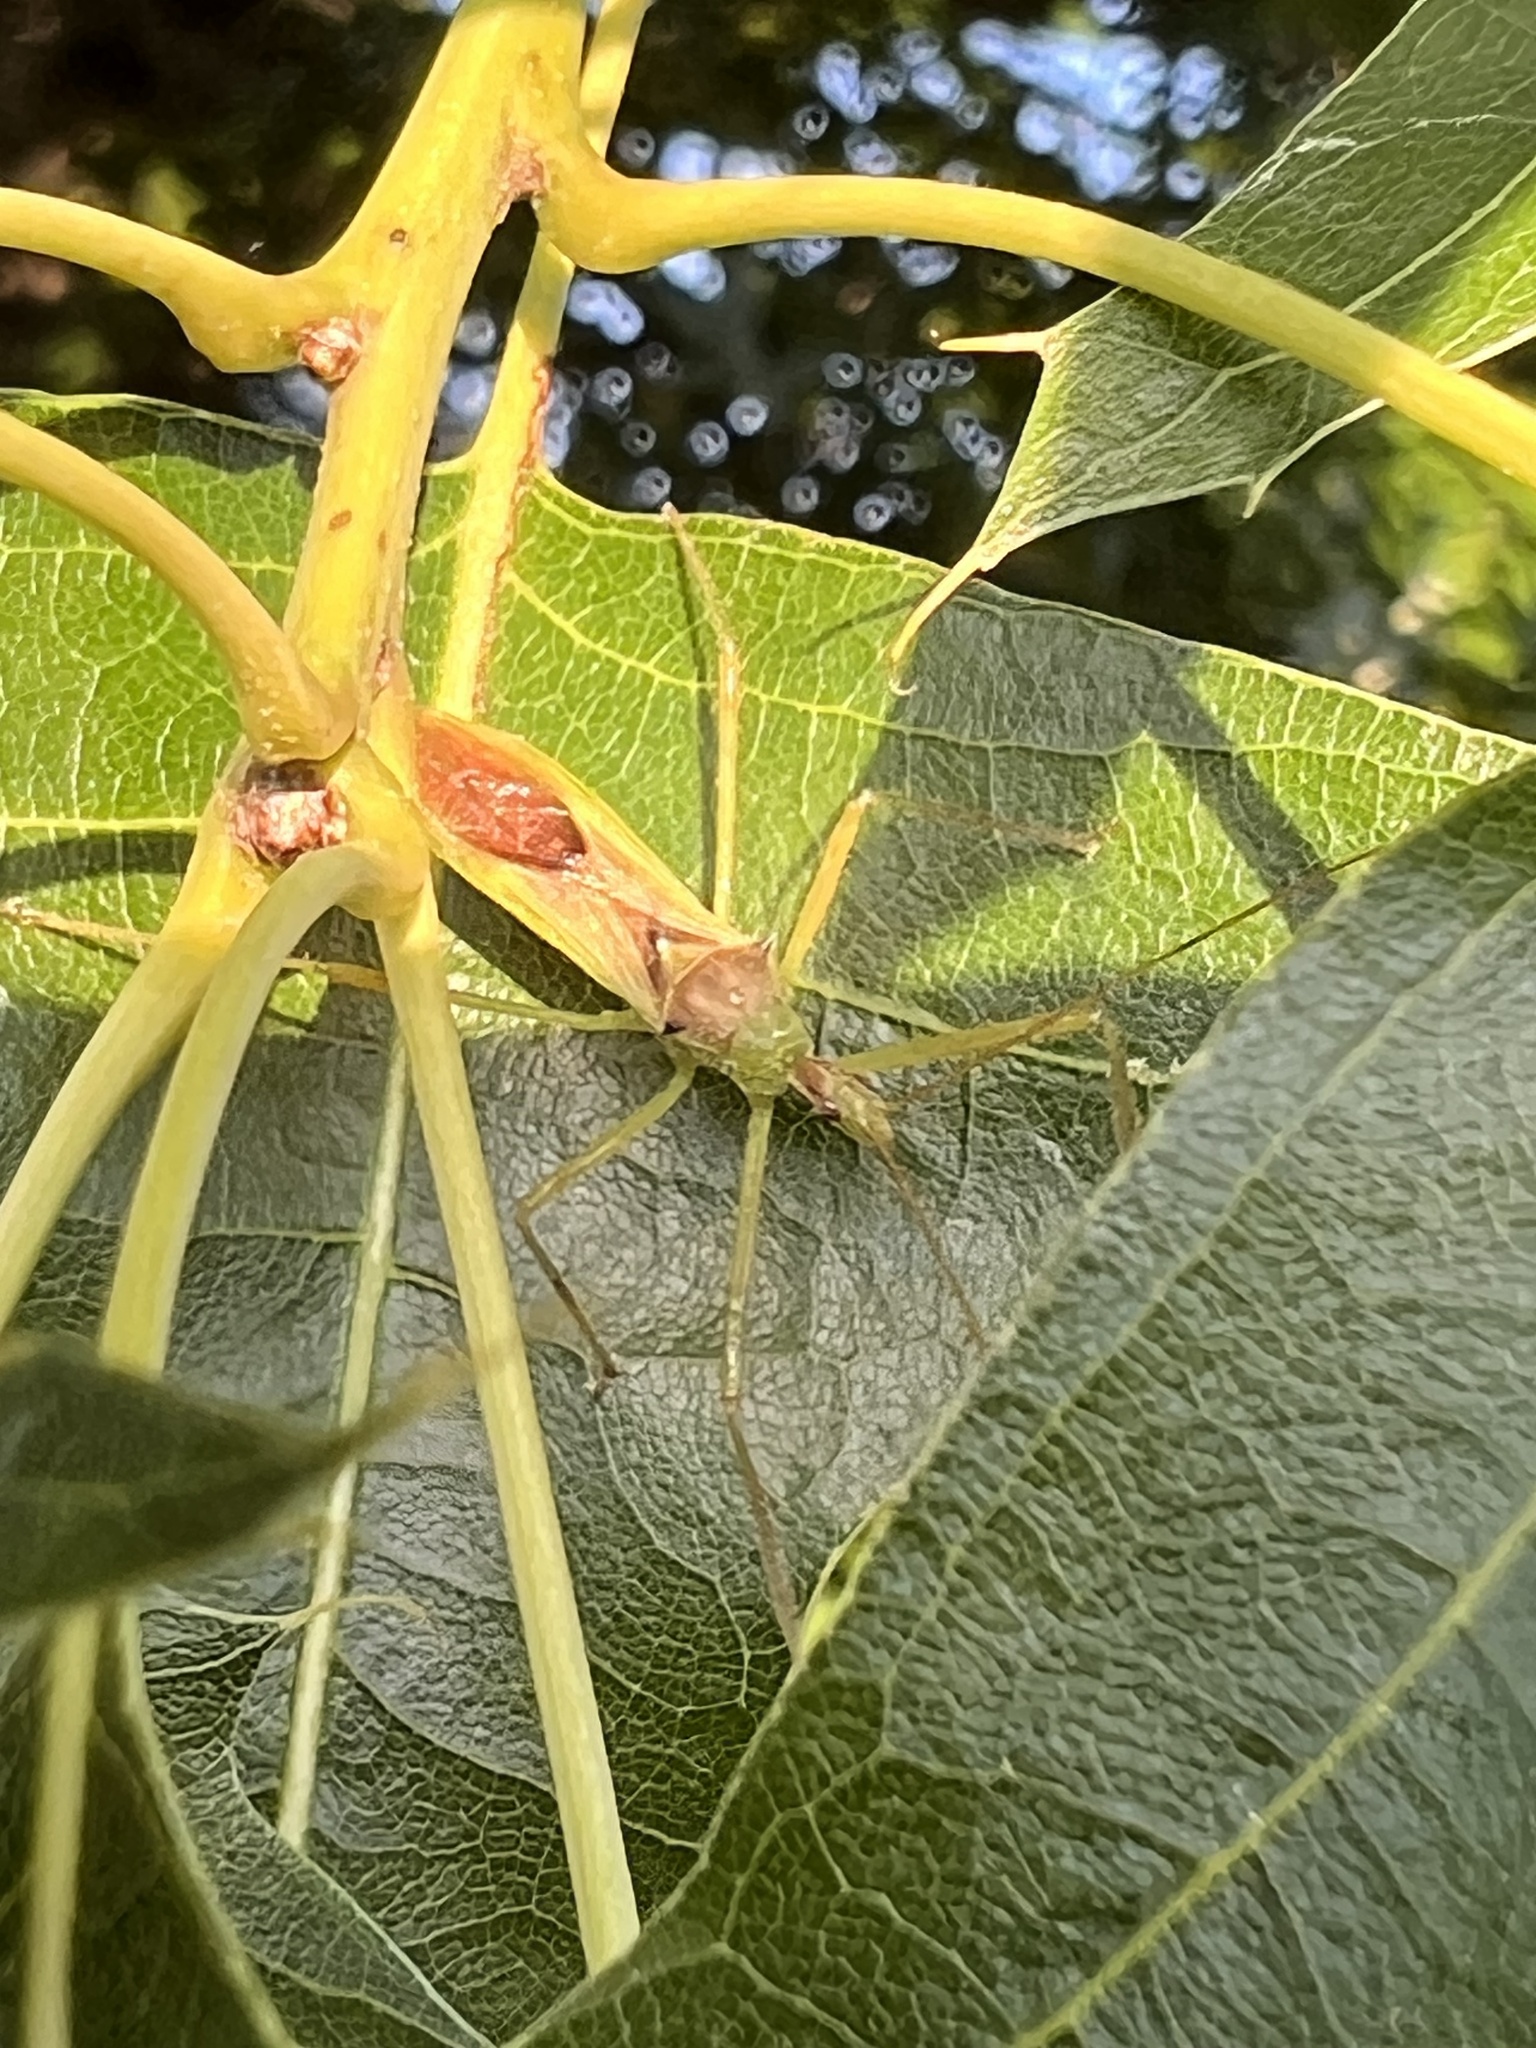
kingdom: Animalia
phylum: Arthropoda
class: Insecta
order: Hemiptera
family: Reduviidae
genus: Zelus
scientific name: Zelus luridus
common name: Pale green assassin bug
